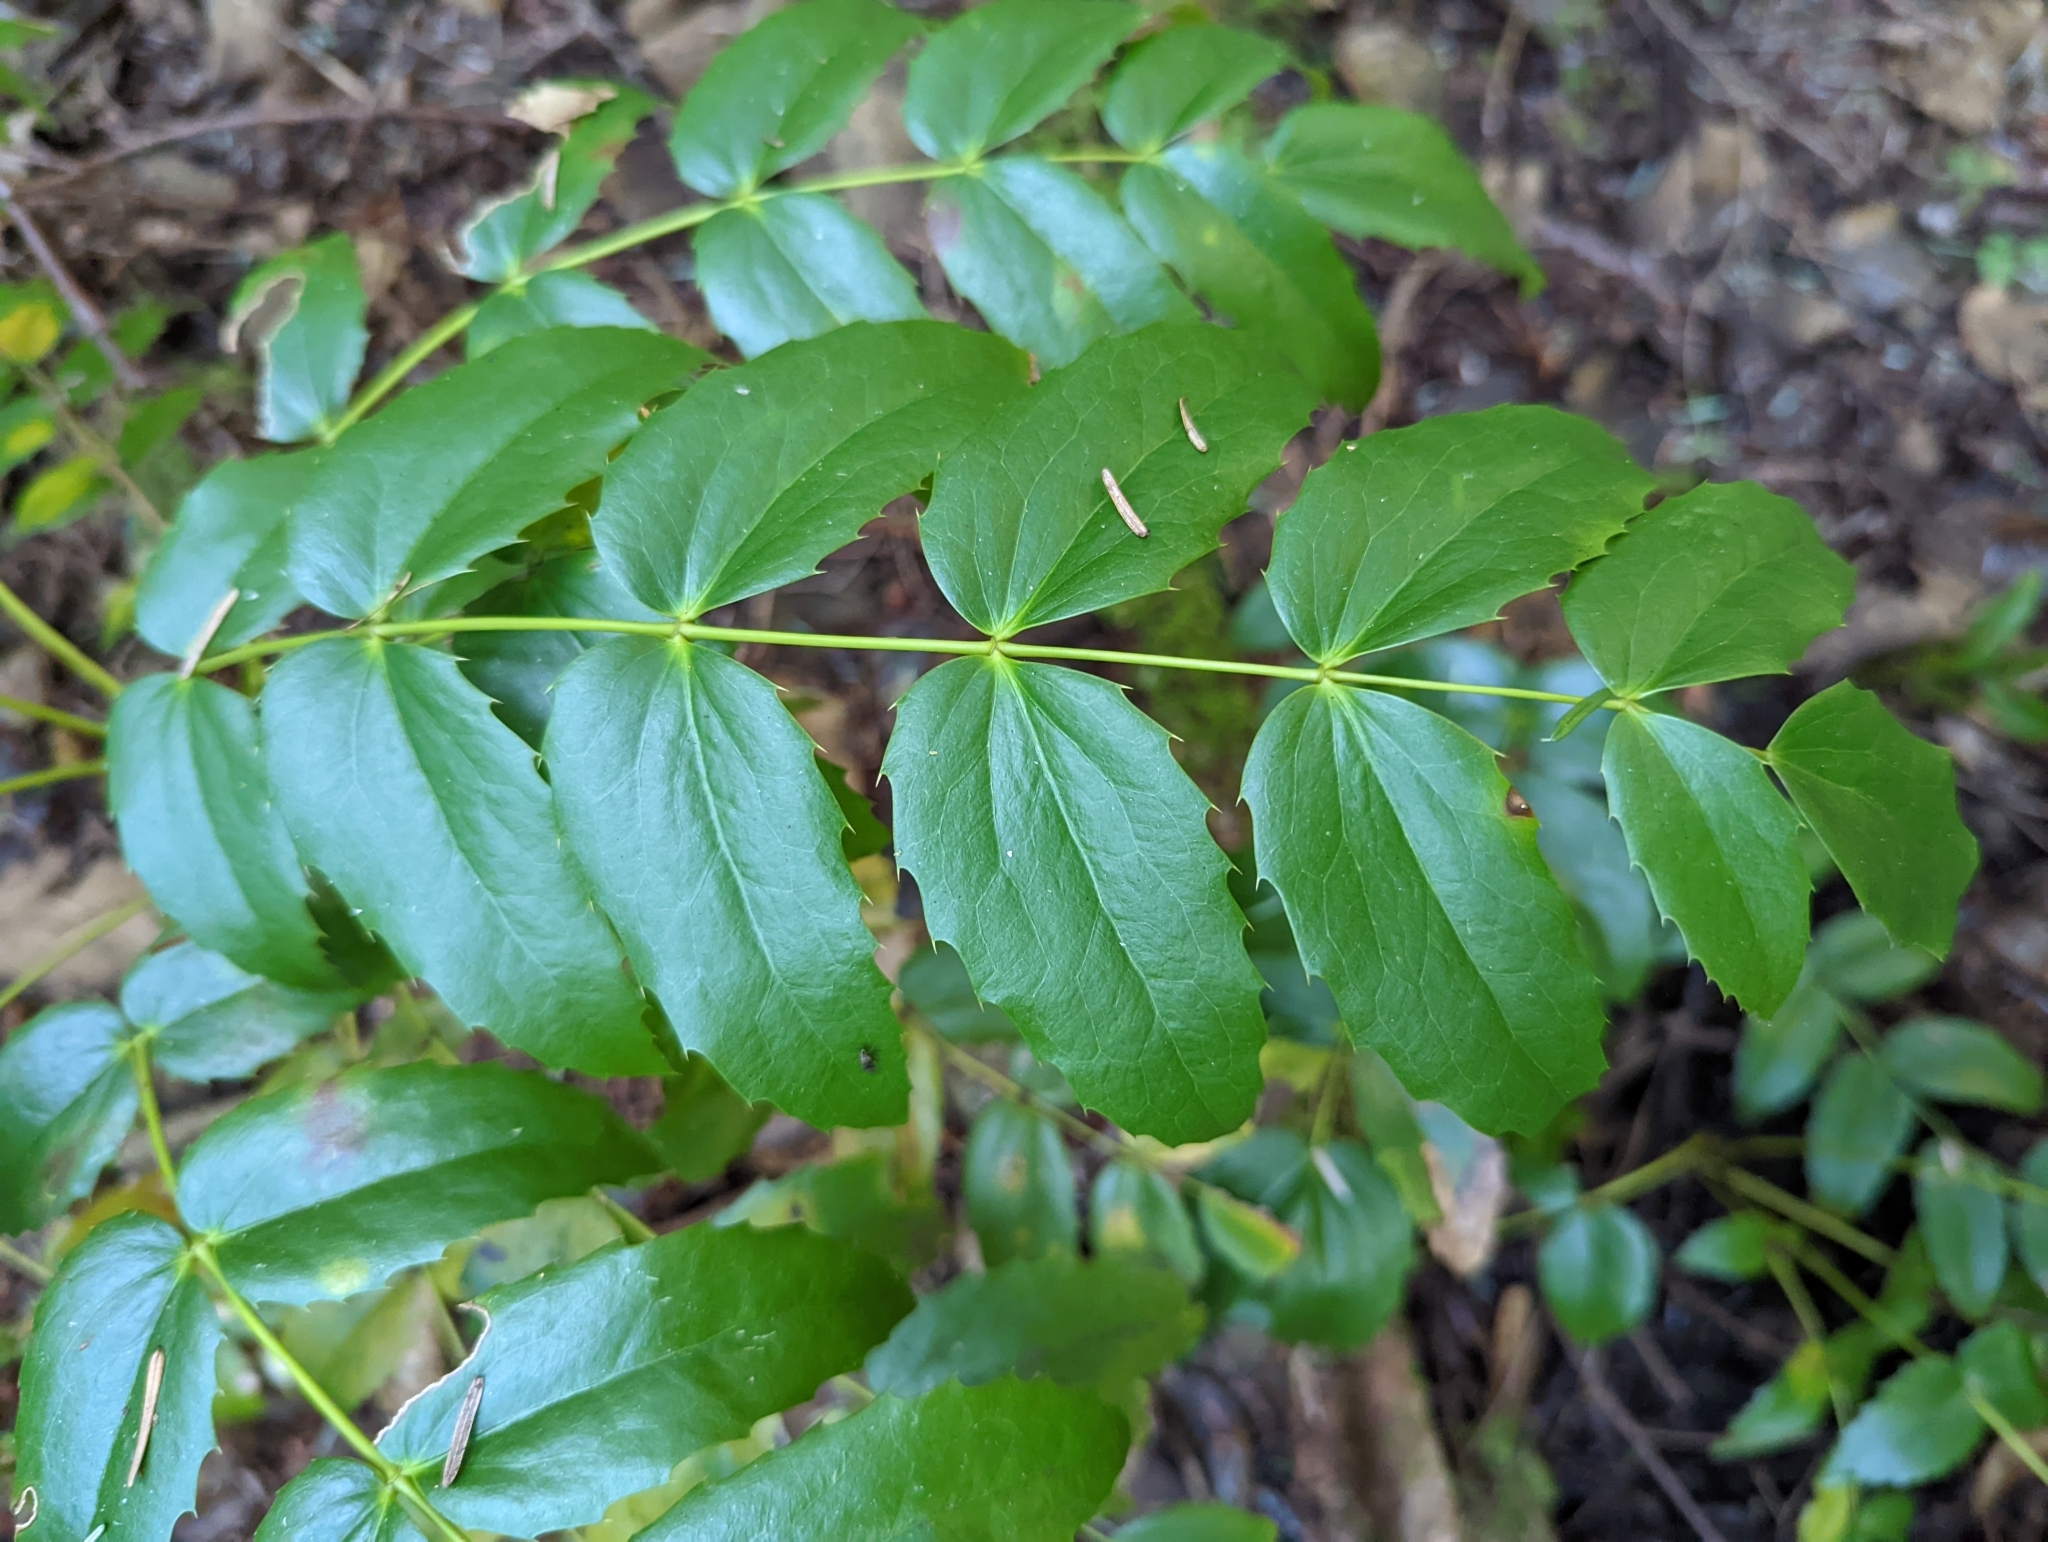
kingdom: Plantae
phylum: Tracheophyta
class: Magnoliopsida
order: Ranunculales
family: Berberidaceae
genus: Mahonia
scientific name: Mahonia nervosa
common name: Cascade oregon-grape
